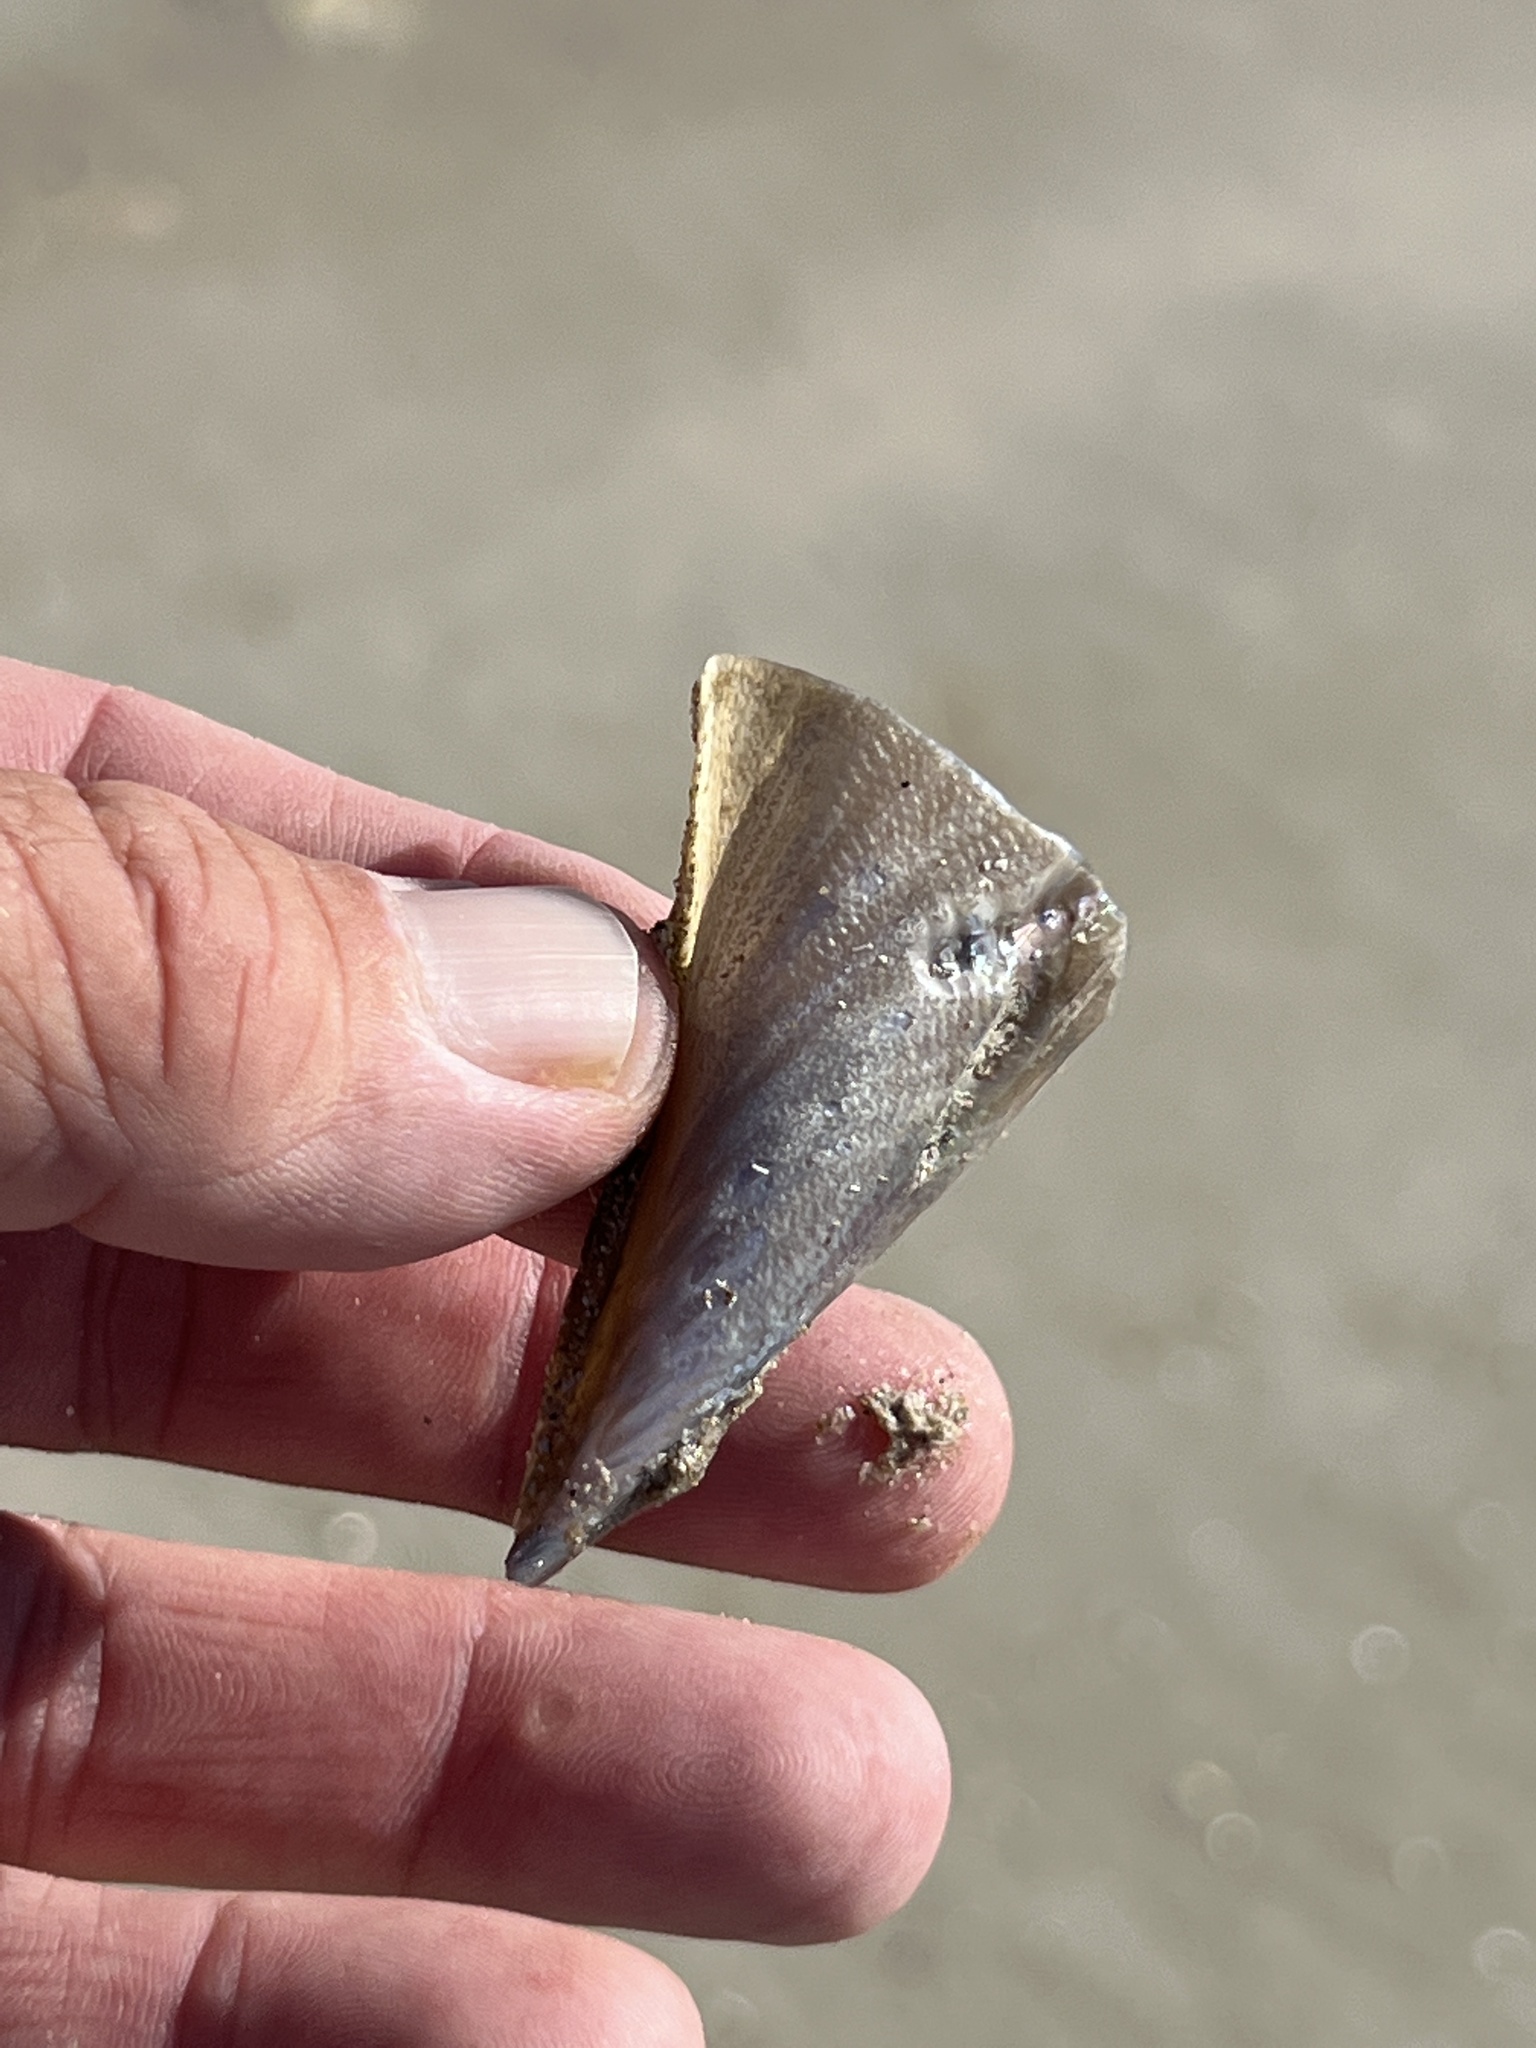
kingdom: Animalia
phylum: Mollusca
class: Bivalvia
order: Ostreida
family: Pinnidae
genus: Atrina
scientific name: Atrina serrata
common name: Saw-toothed penshell
